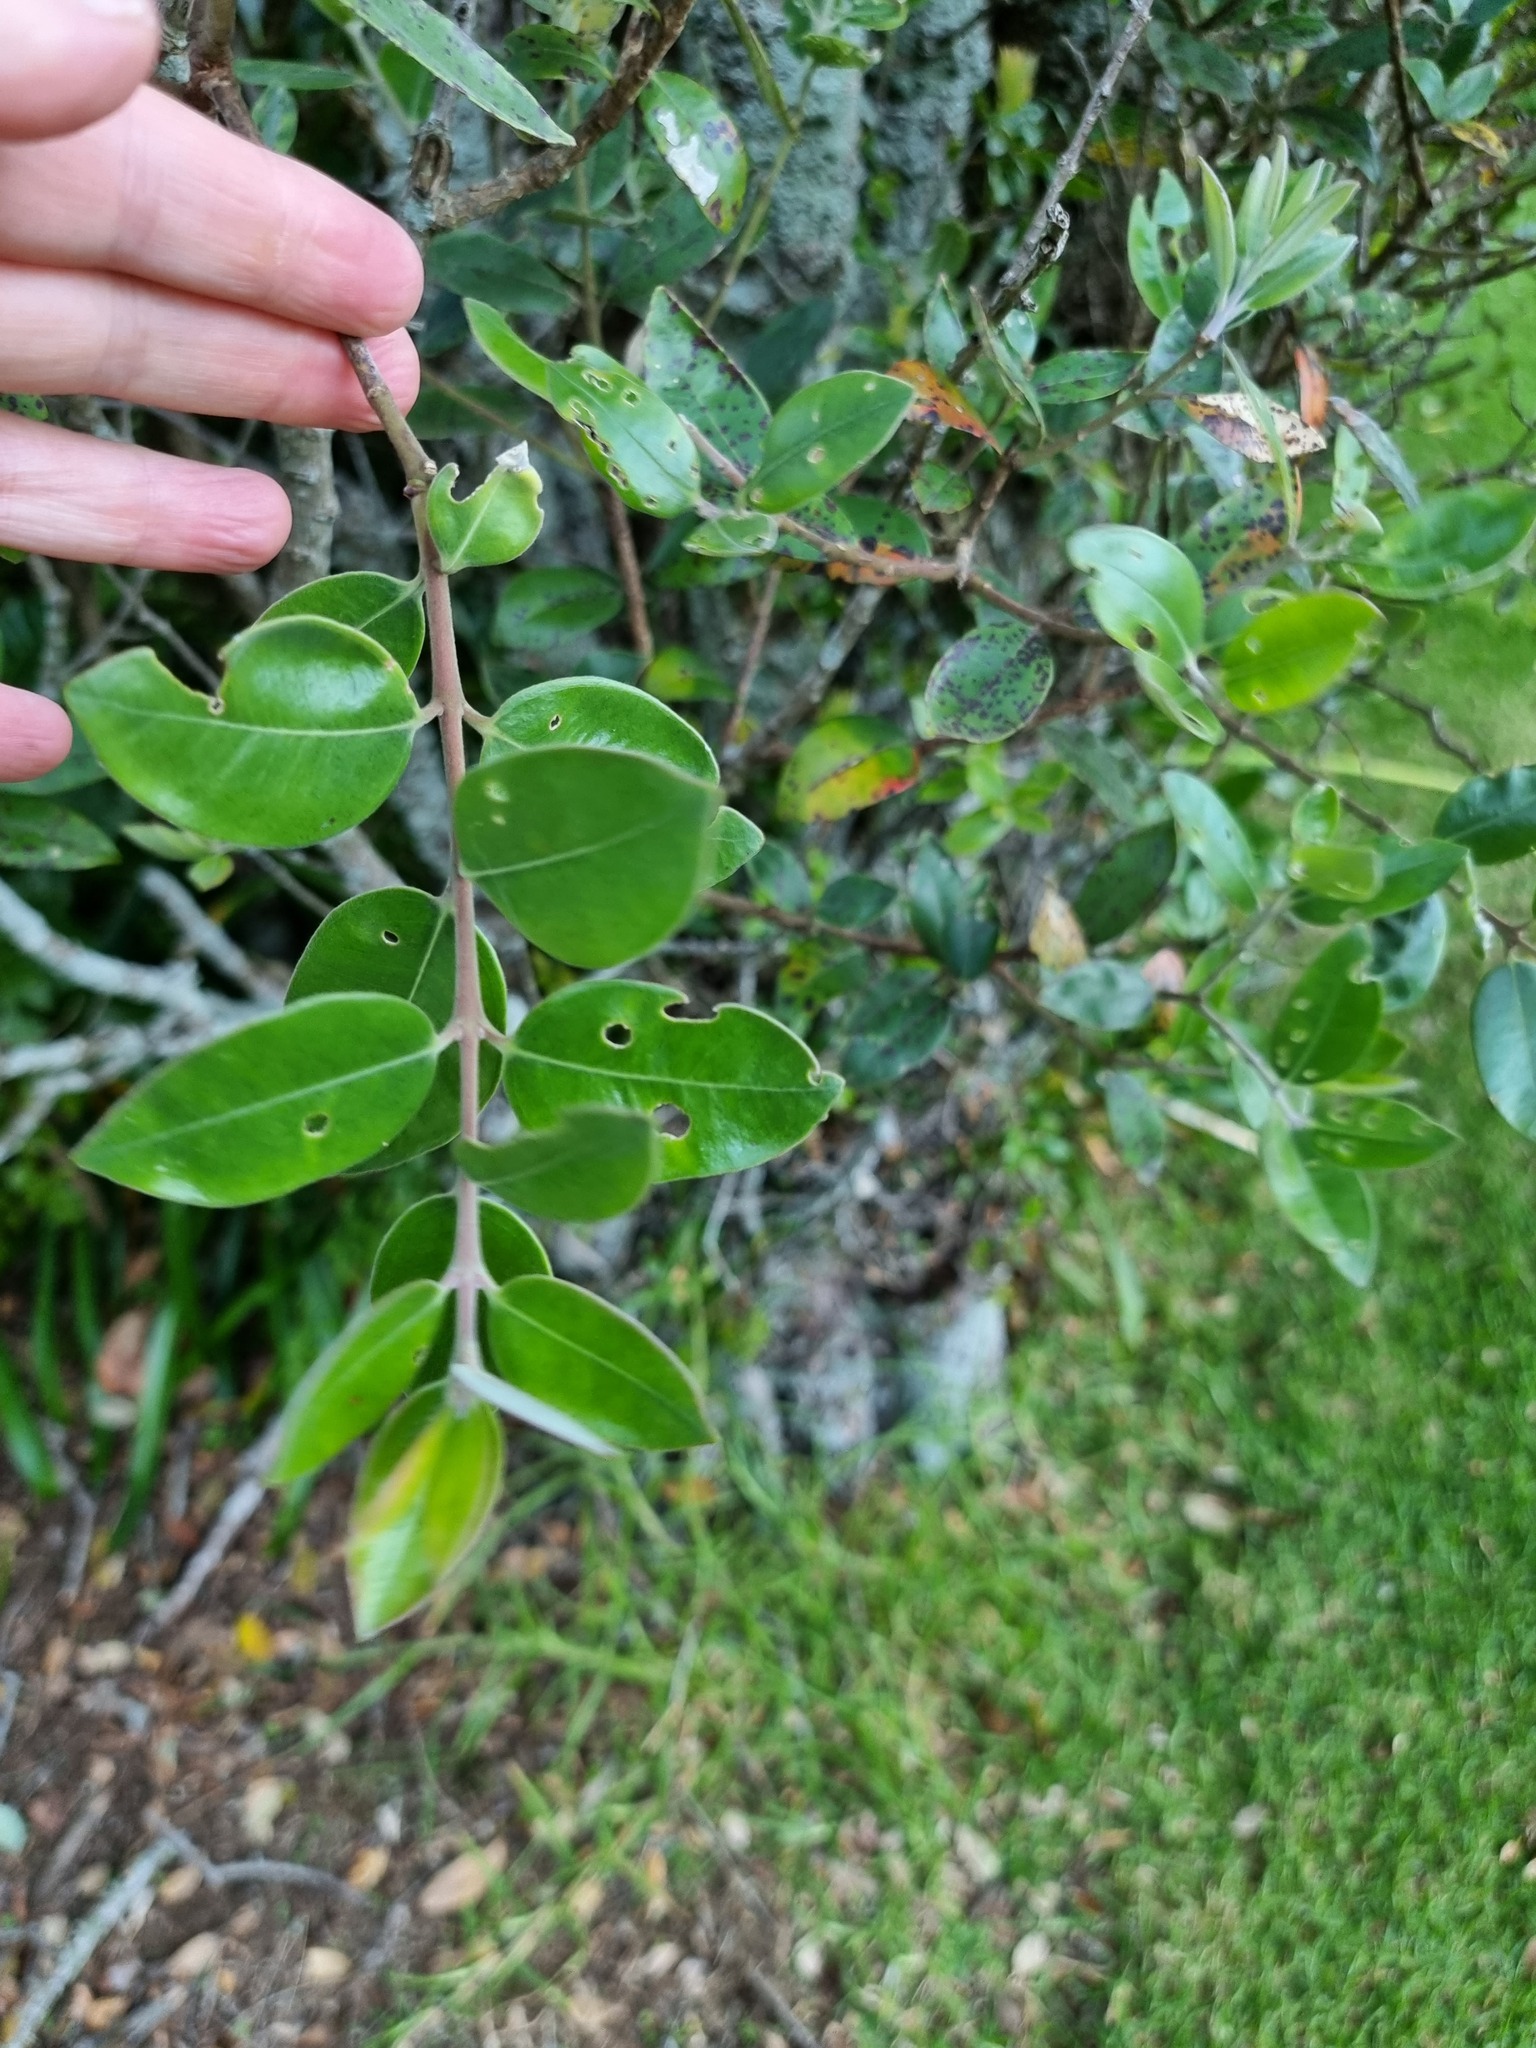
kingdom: Plantae
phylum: Tracheophyta
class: Magnoliopsida
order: Myrtales
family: Myrtaceae
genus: Metrosideros
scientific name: Metrosideros excelsa
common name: New zealand christmastree
